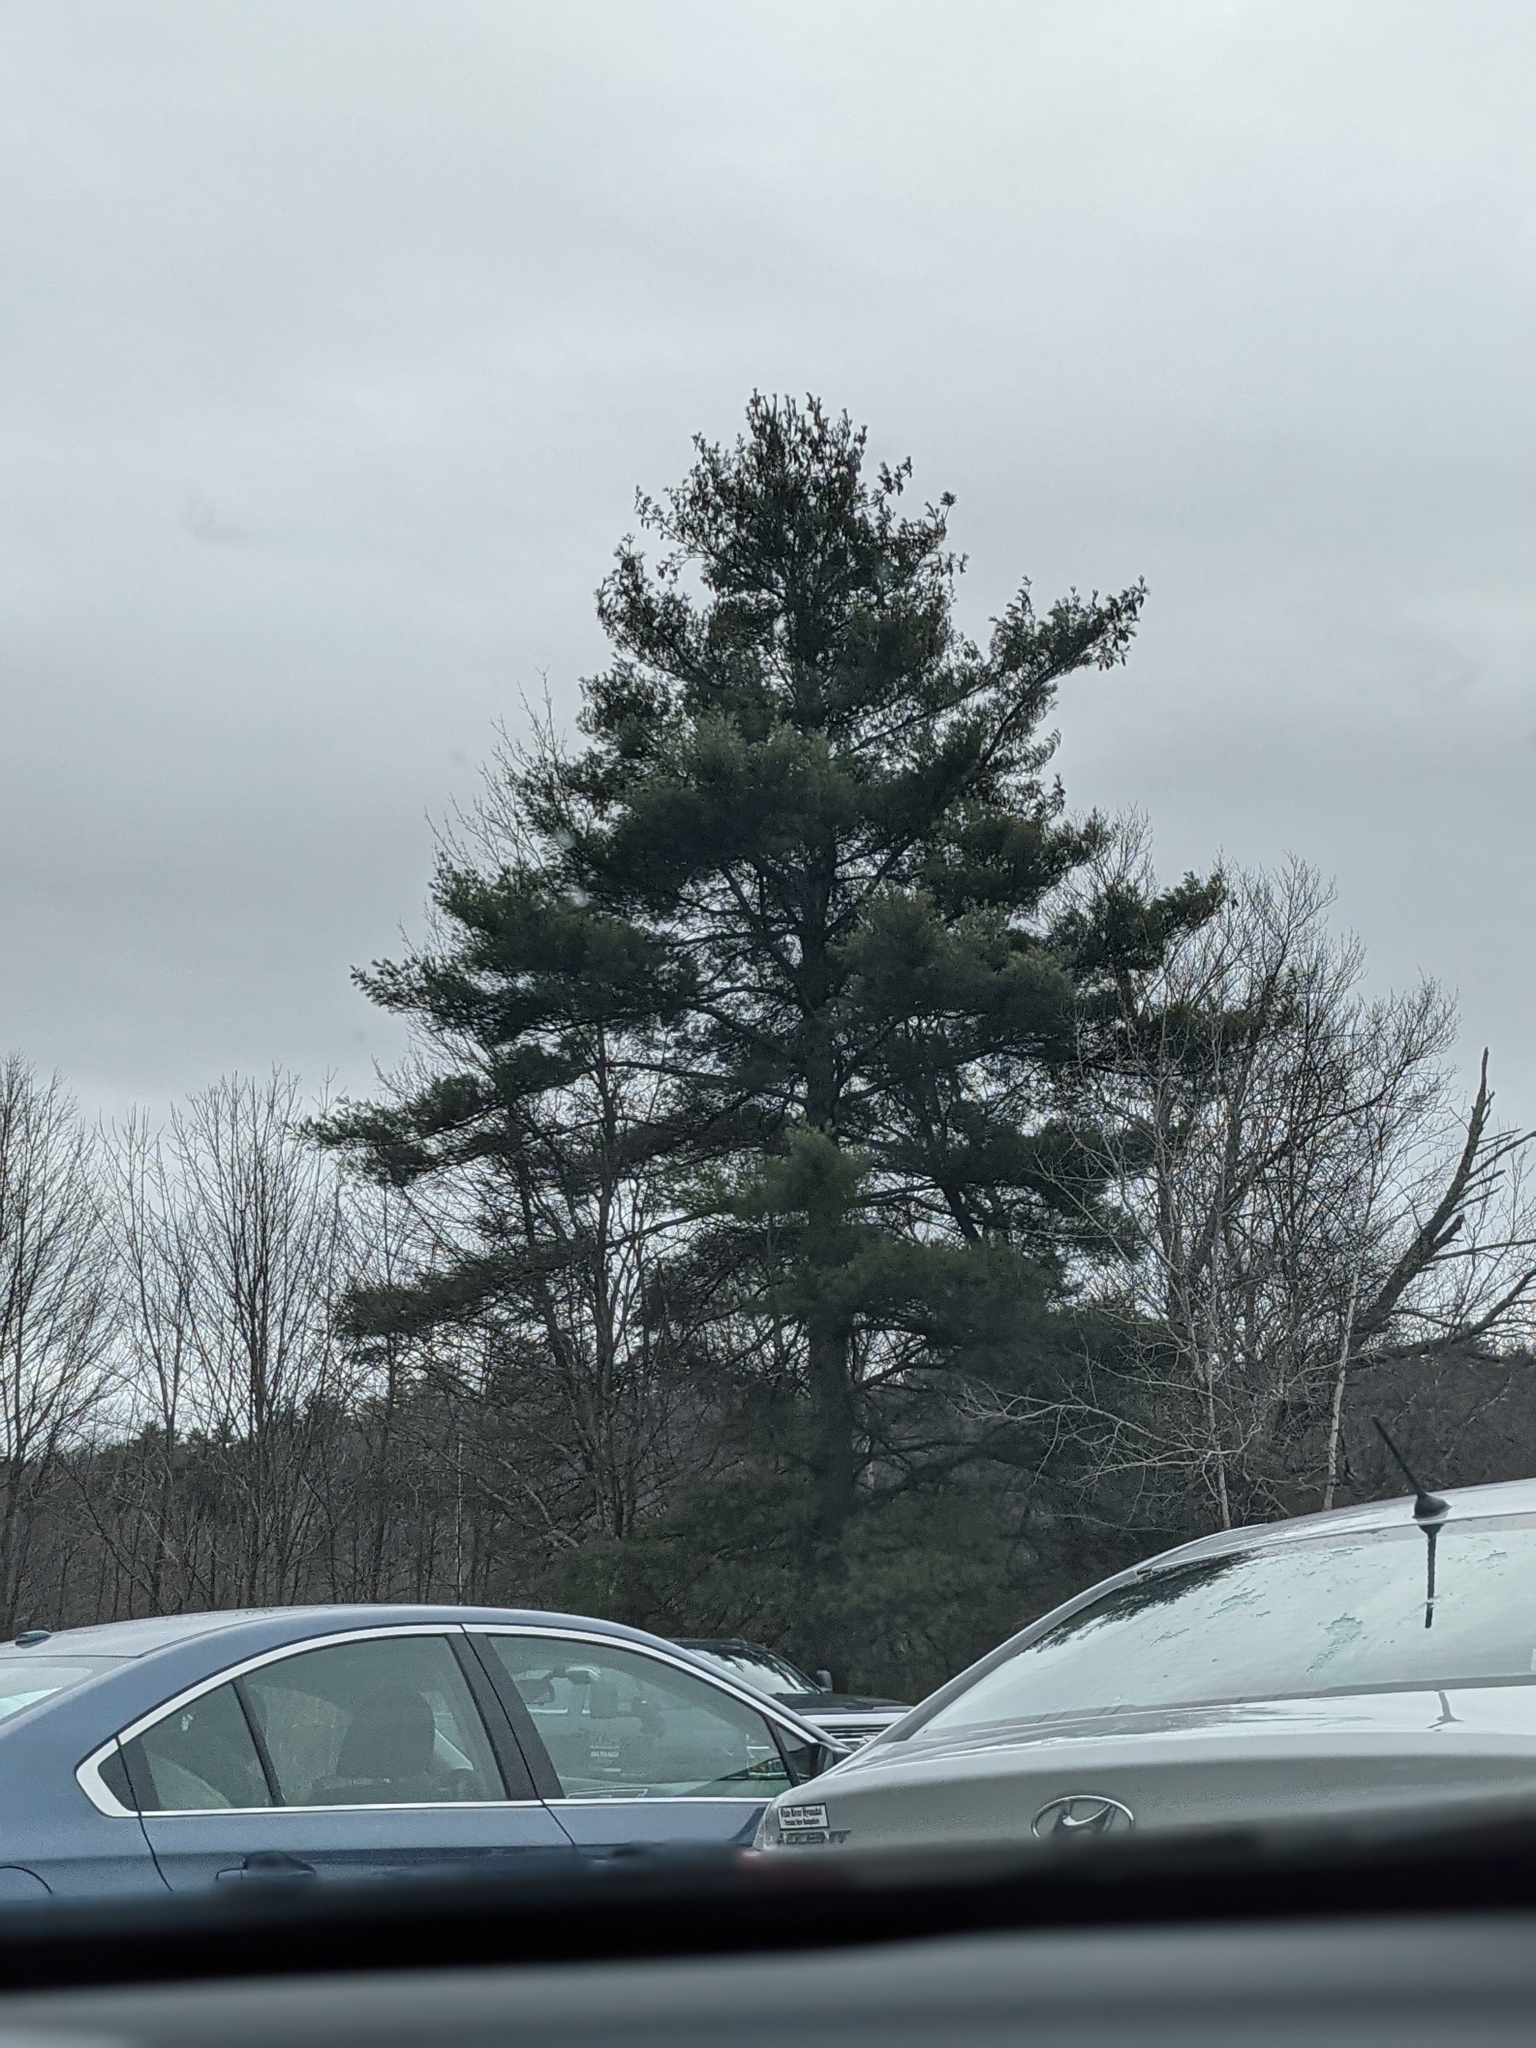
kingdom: Plantae
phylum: Tracheophyta
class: Pinopsida
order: Pinales
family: Pinaceae
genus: Pinus
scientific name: Pinus strobus
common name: Weymouth pine
